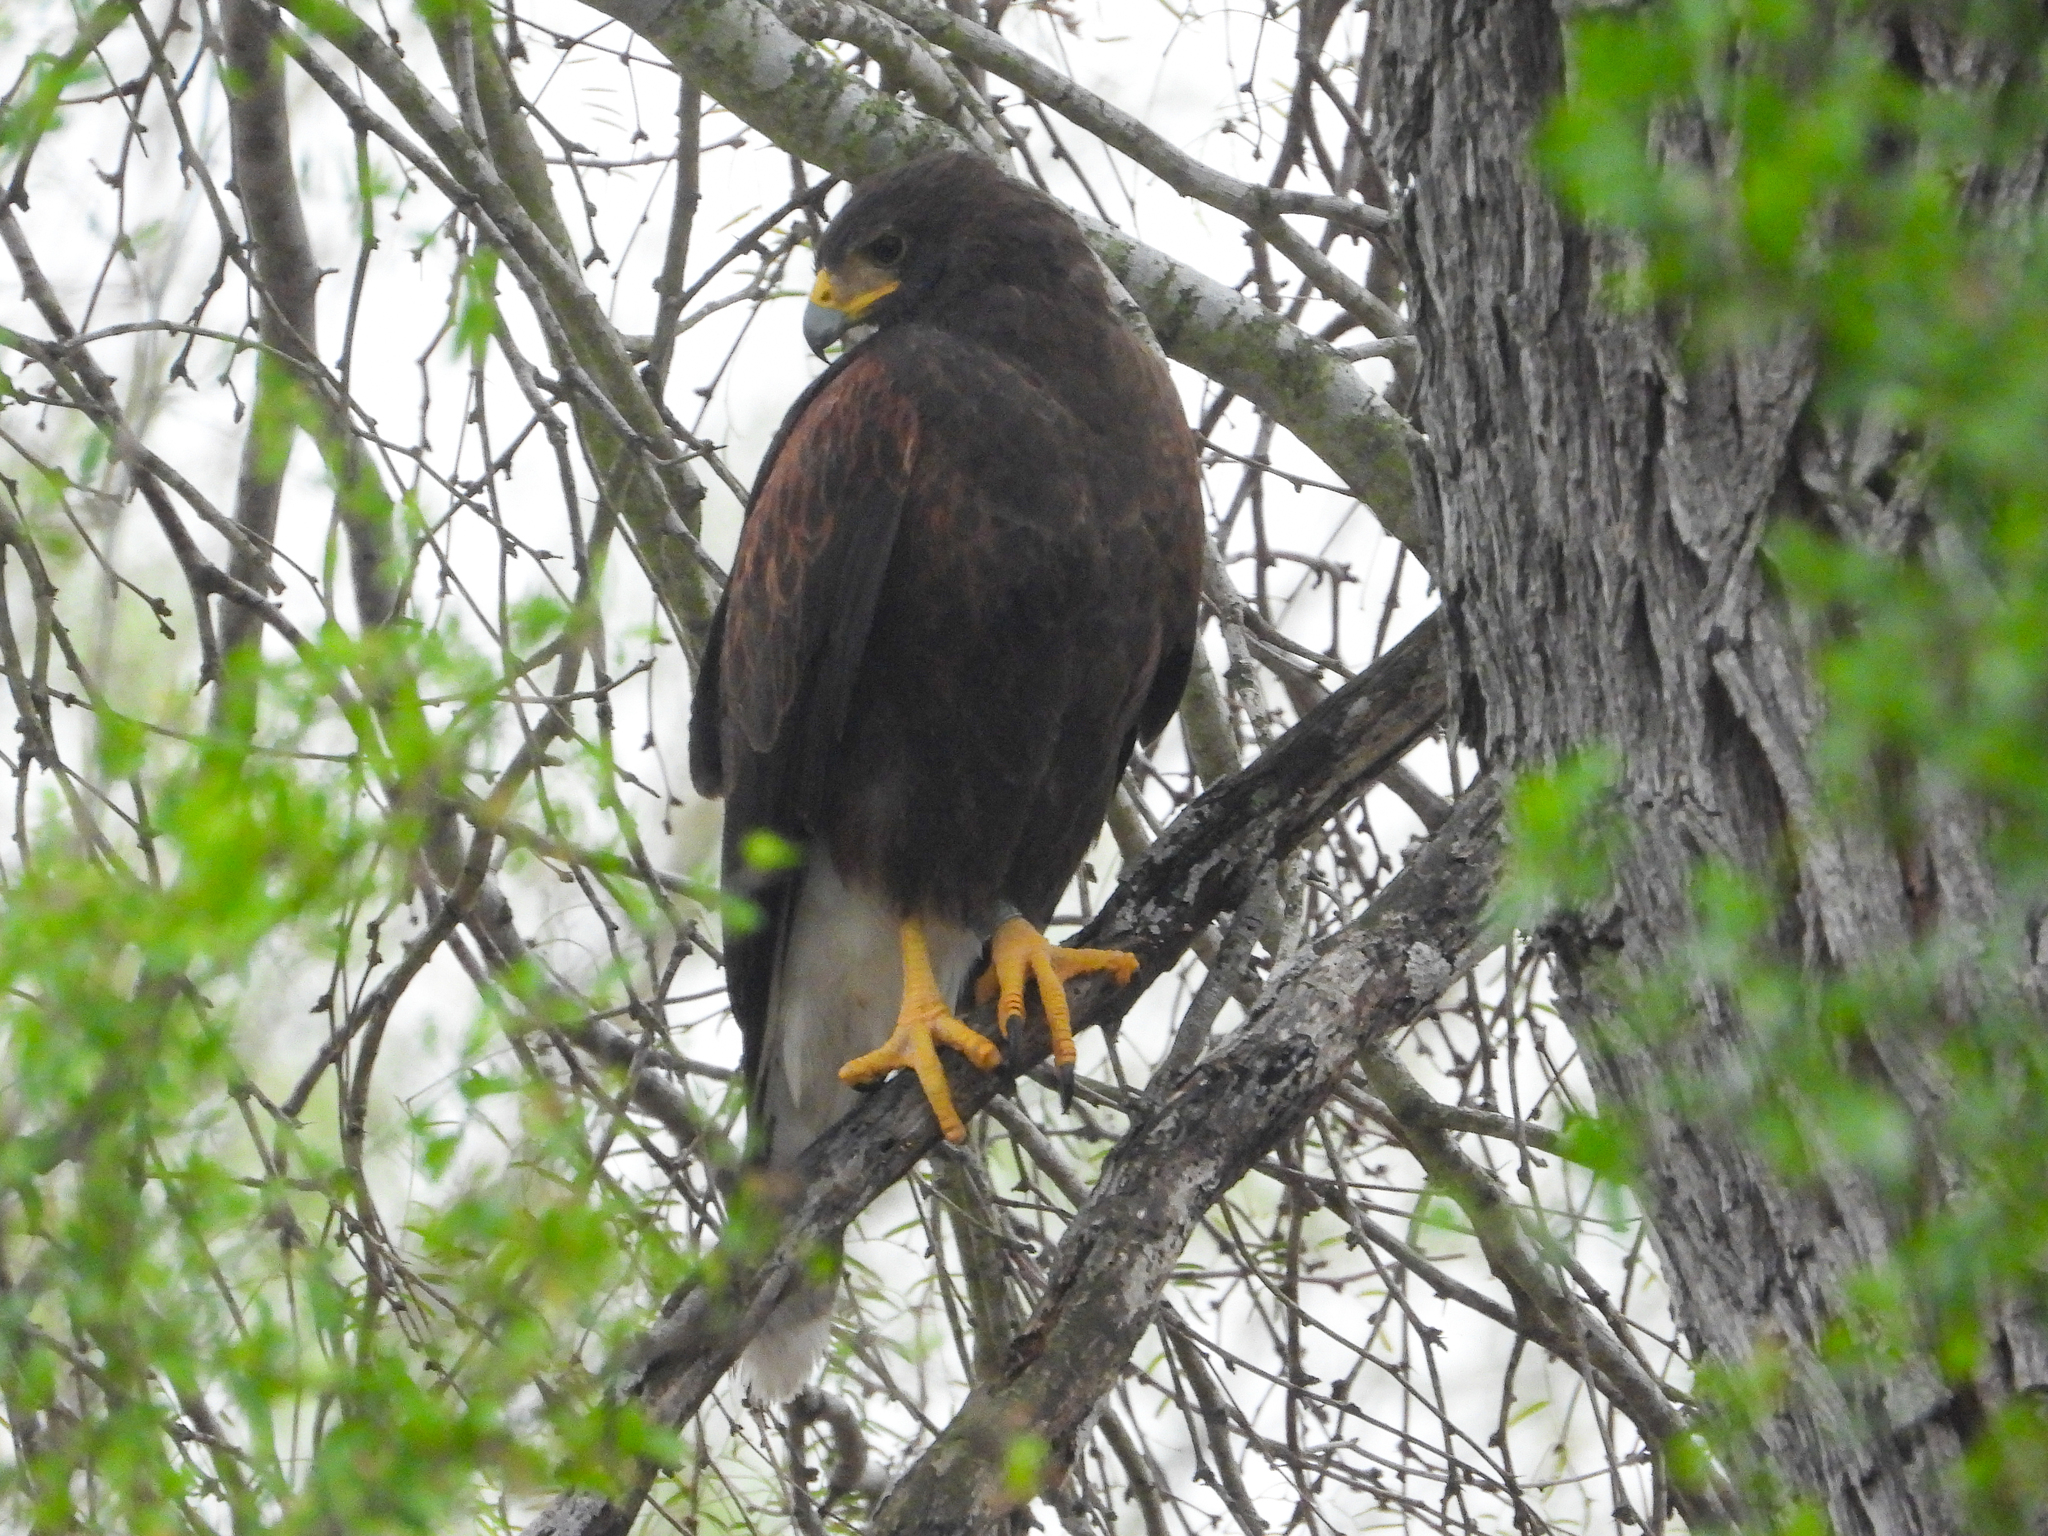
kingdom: Animalia
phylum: Chordata
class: Aves
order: Accipitriformes
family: Accipitridae
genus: Parabuteo
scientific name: Parabuteo unicinctus
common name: Harris's hawk
